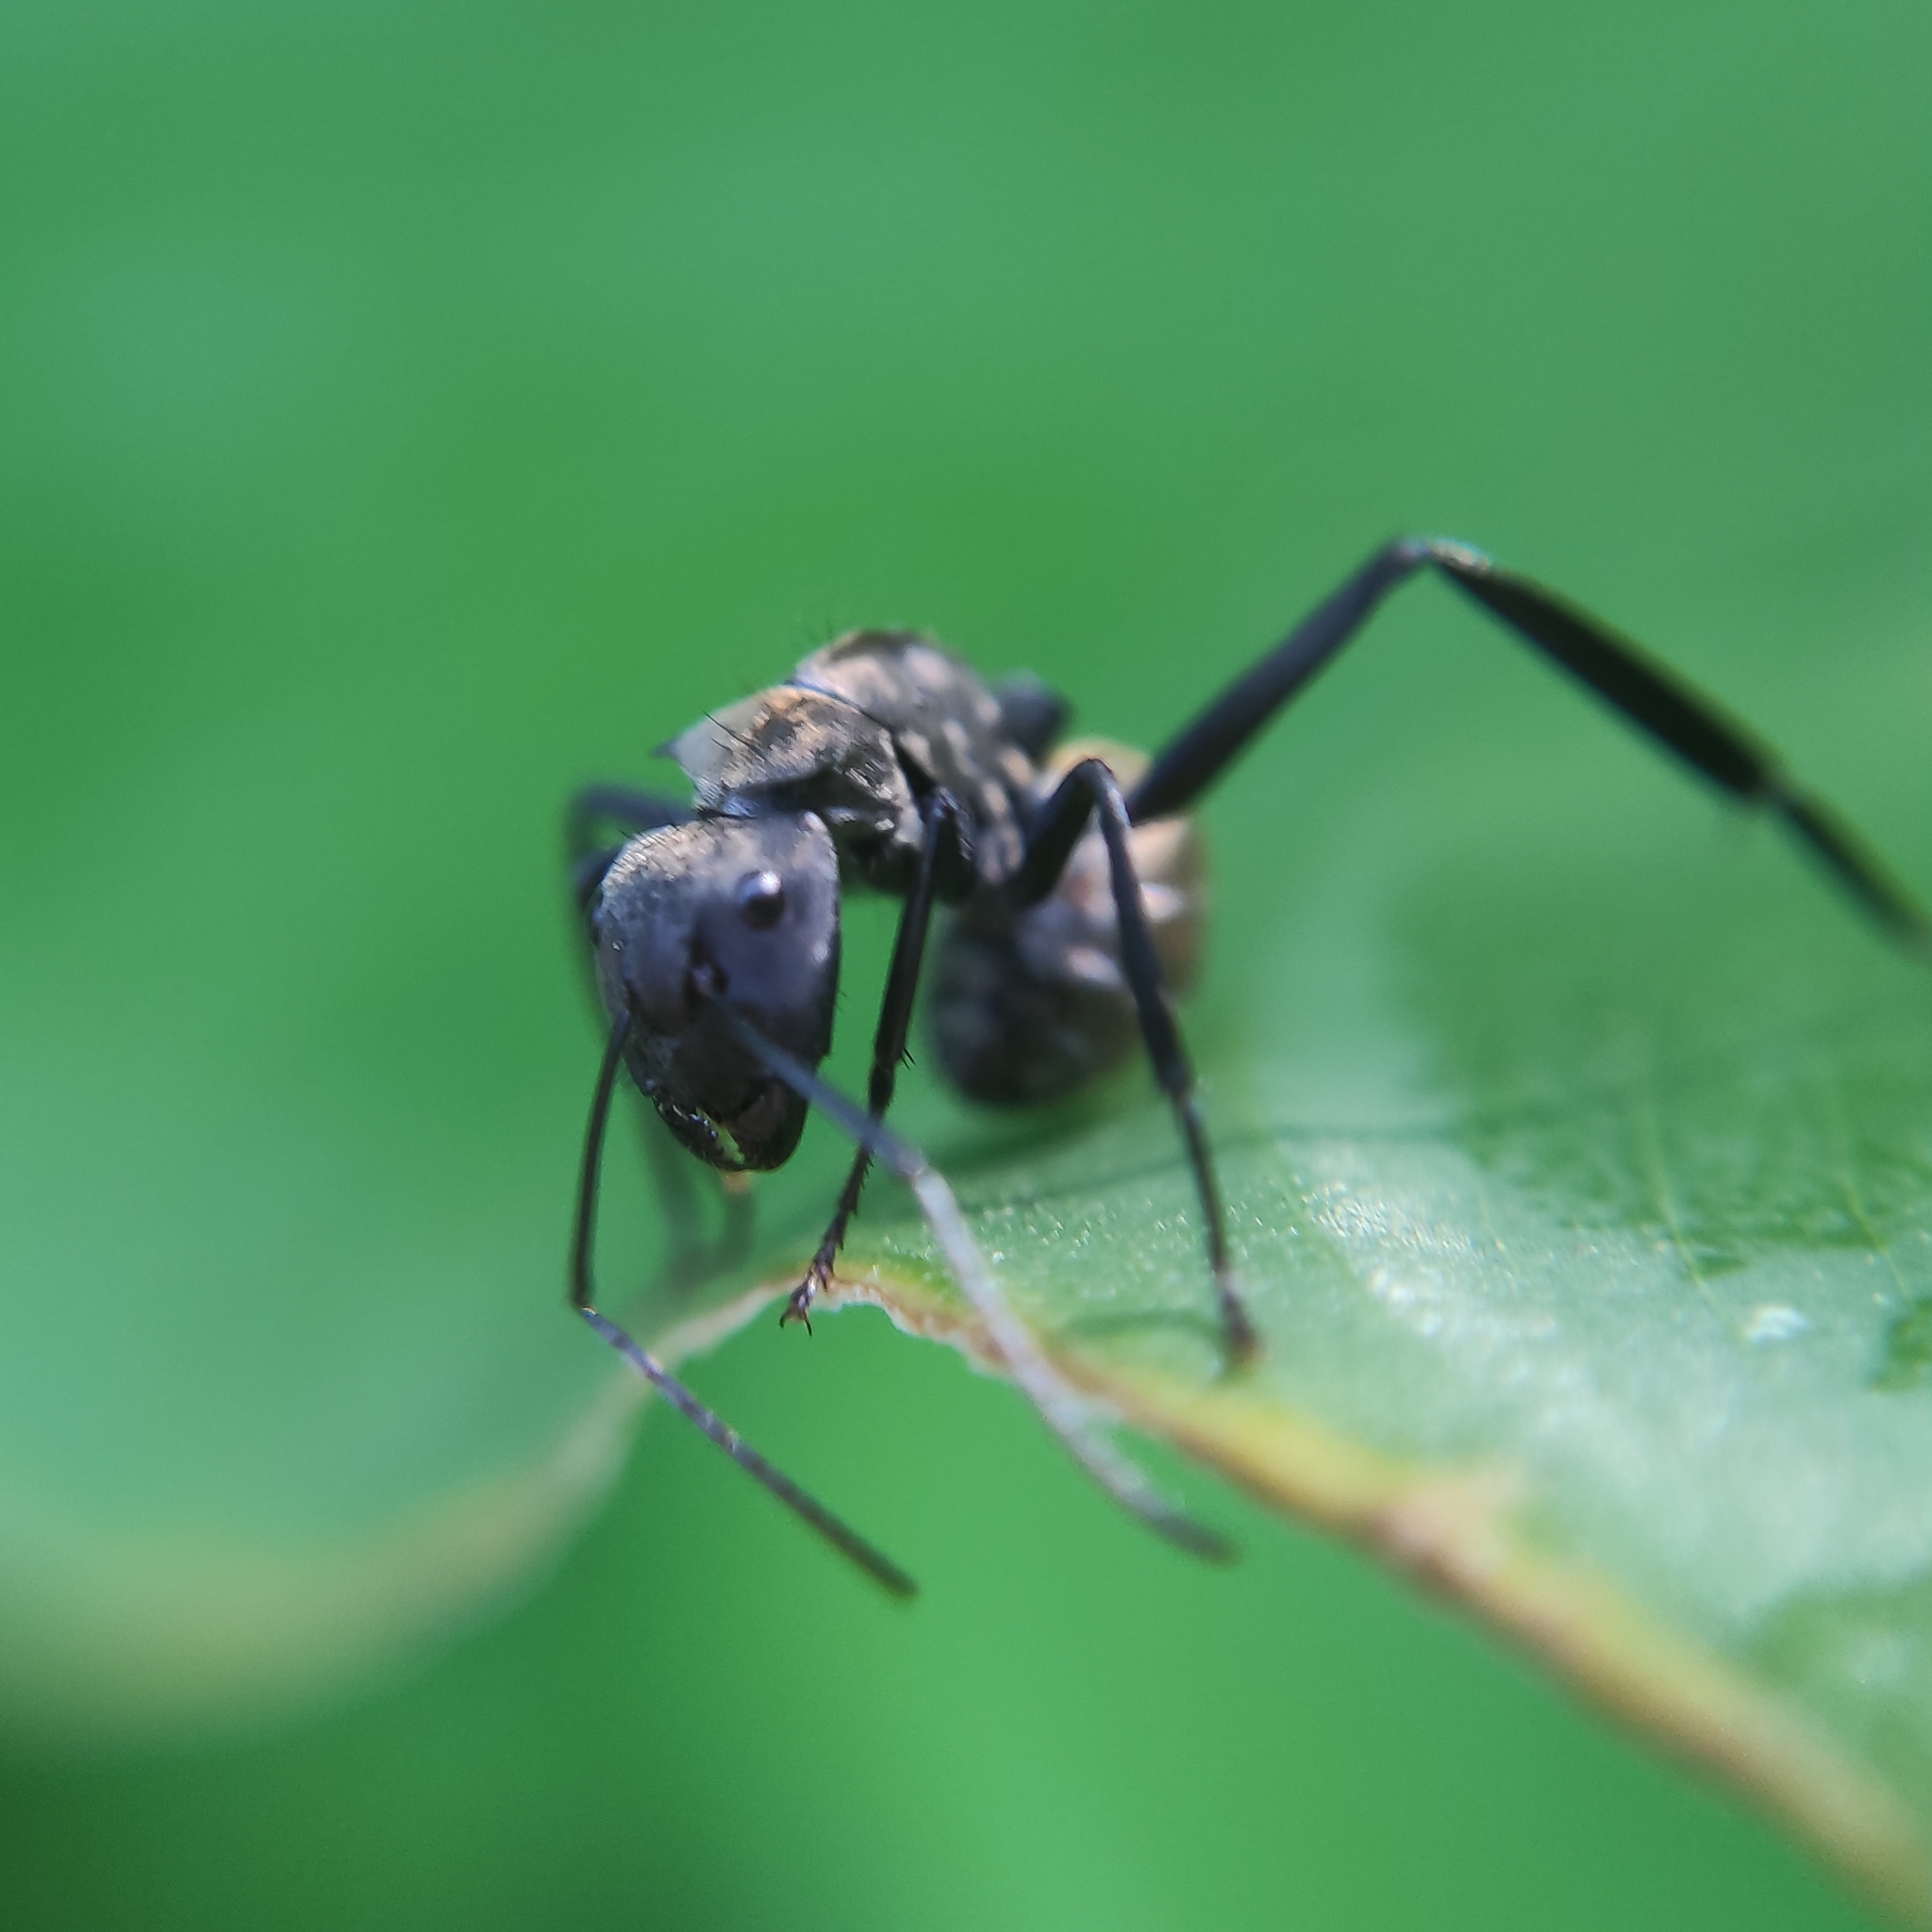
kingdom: Animalia
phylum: Arthropoda
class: Insecta
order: Hymenoptera
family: Formicidae
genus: Camponotus
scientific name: Camponotus sericeiventris
